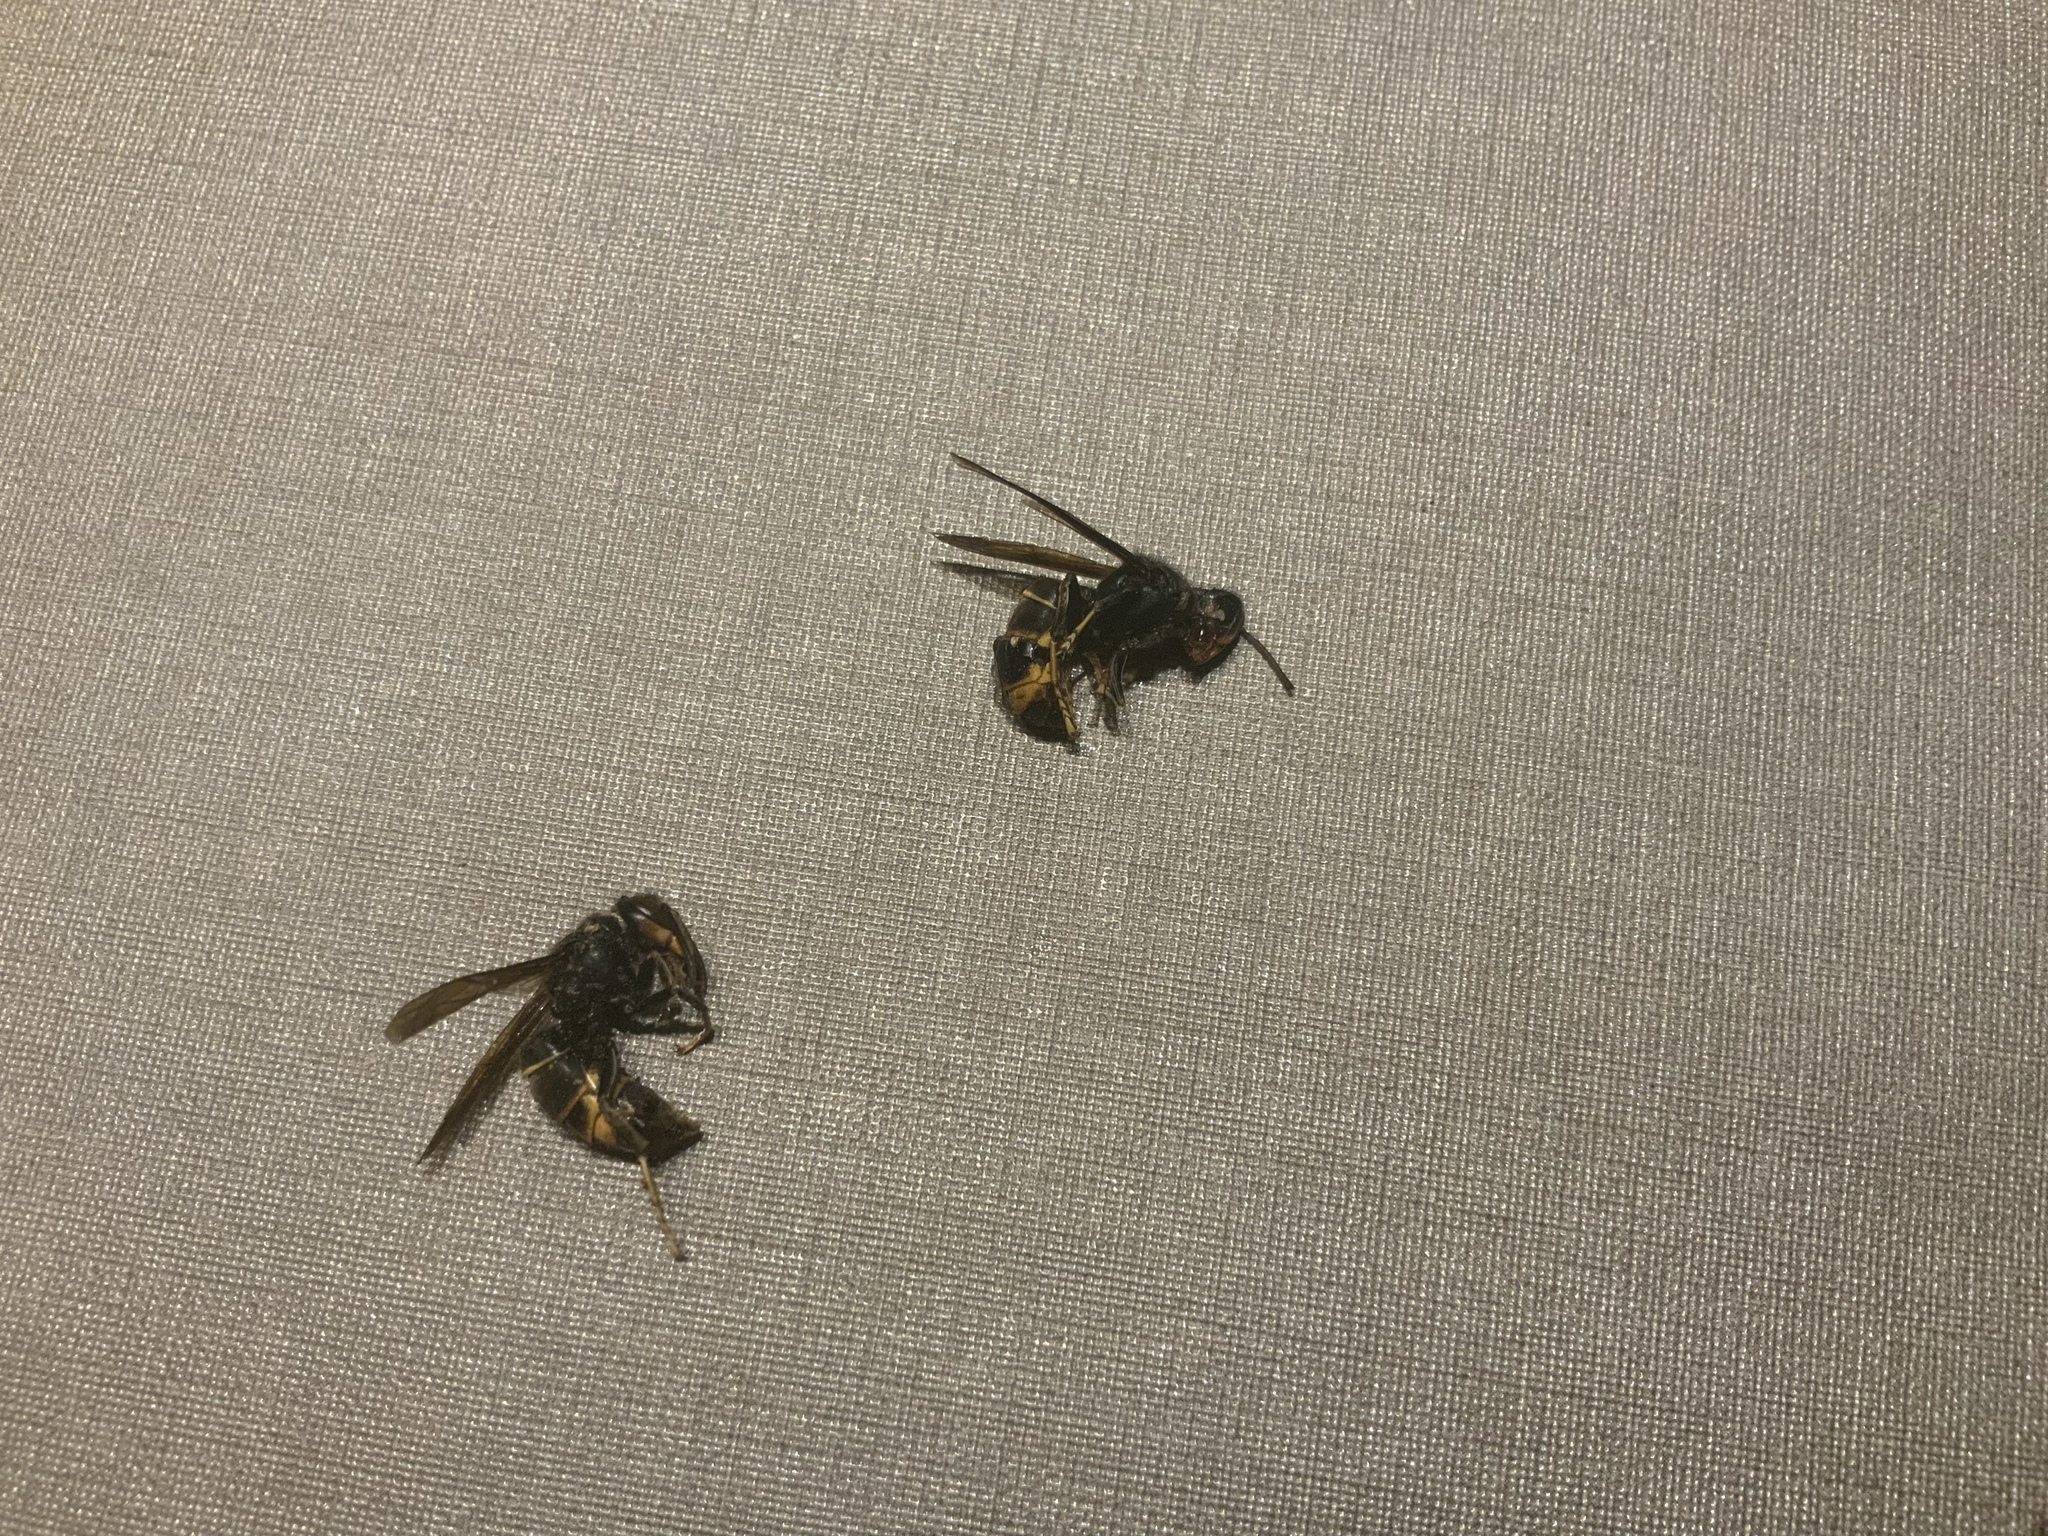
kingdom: Animalia
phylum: Arthropoda
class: Insecta
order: Hymenoptera
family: Vespidae
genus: Vespa
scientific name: Vespa velutina
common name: Asian hornet
